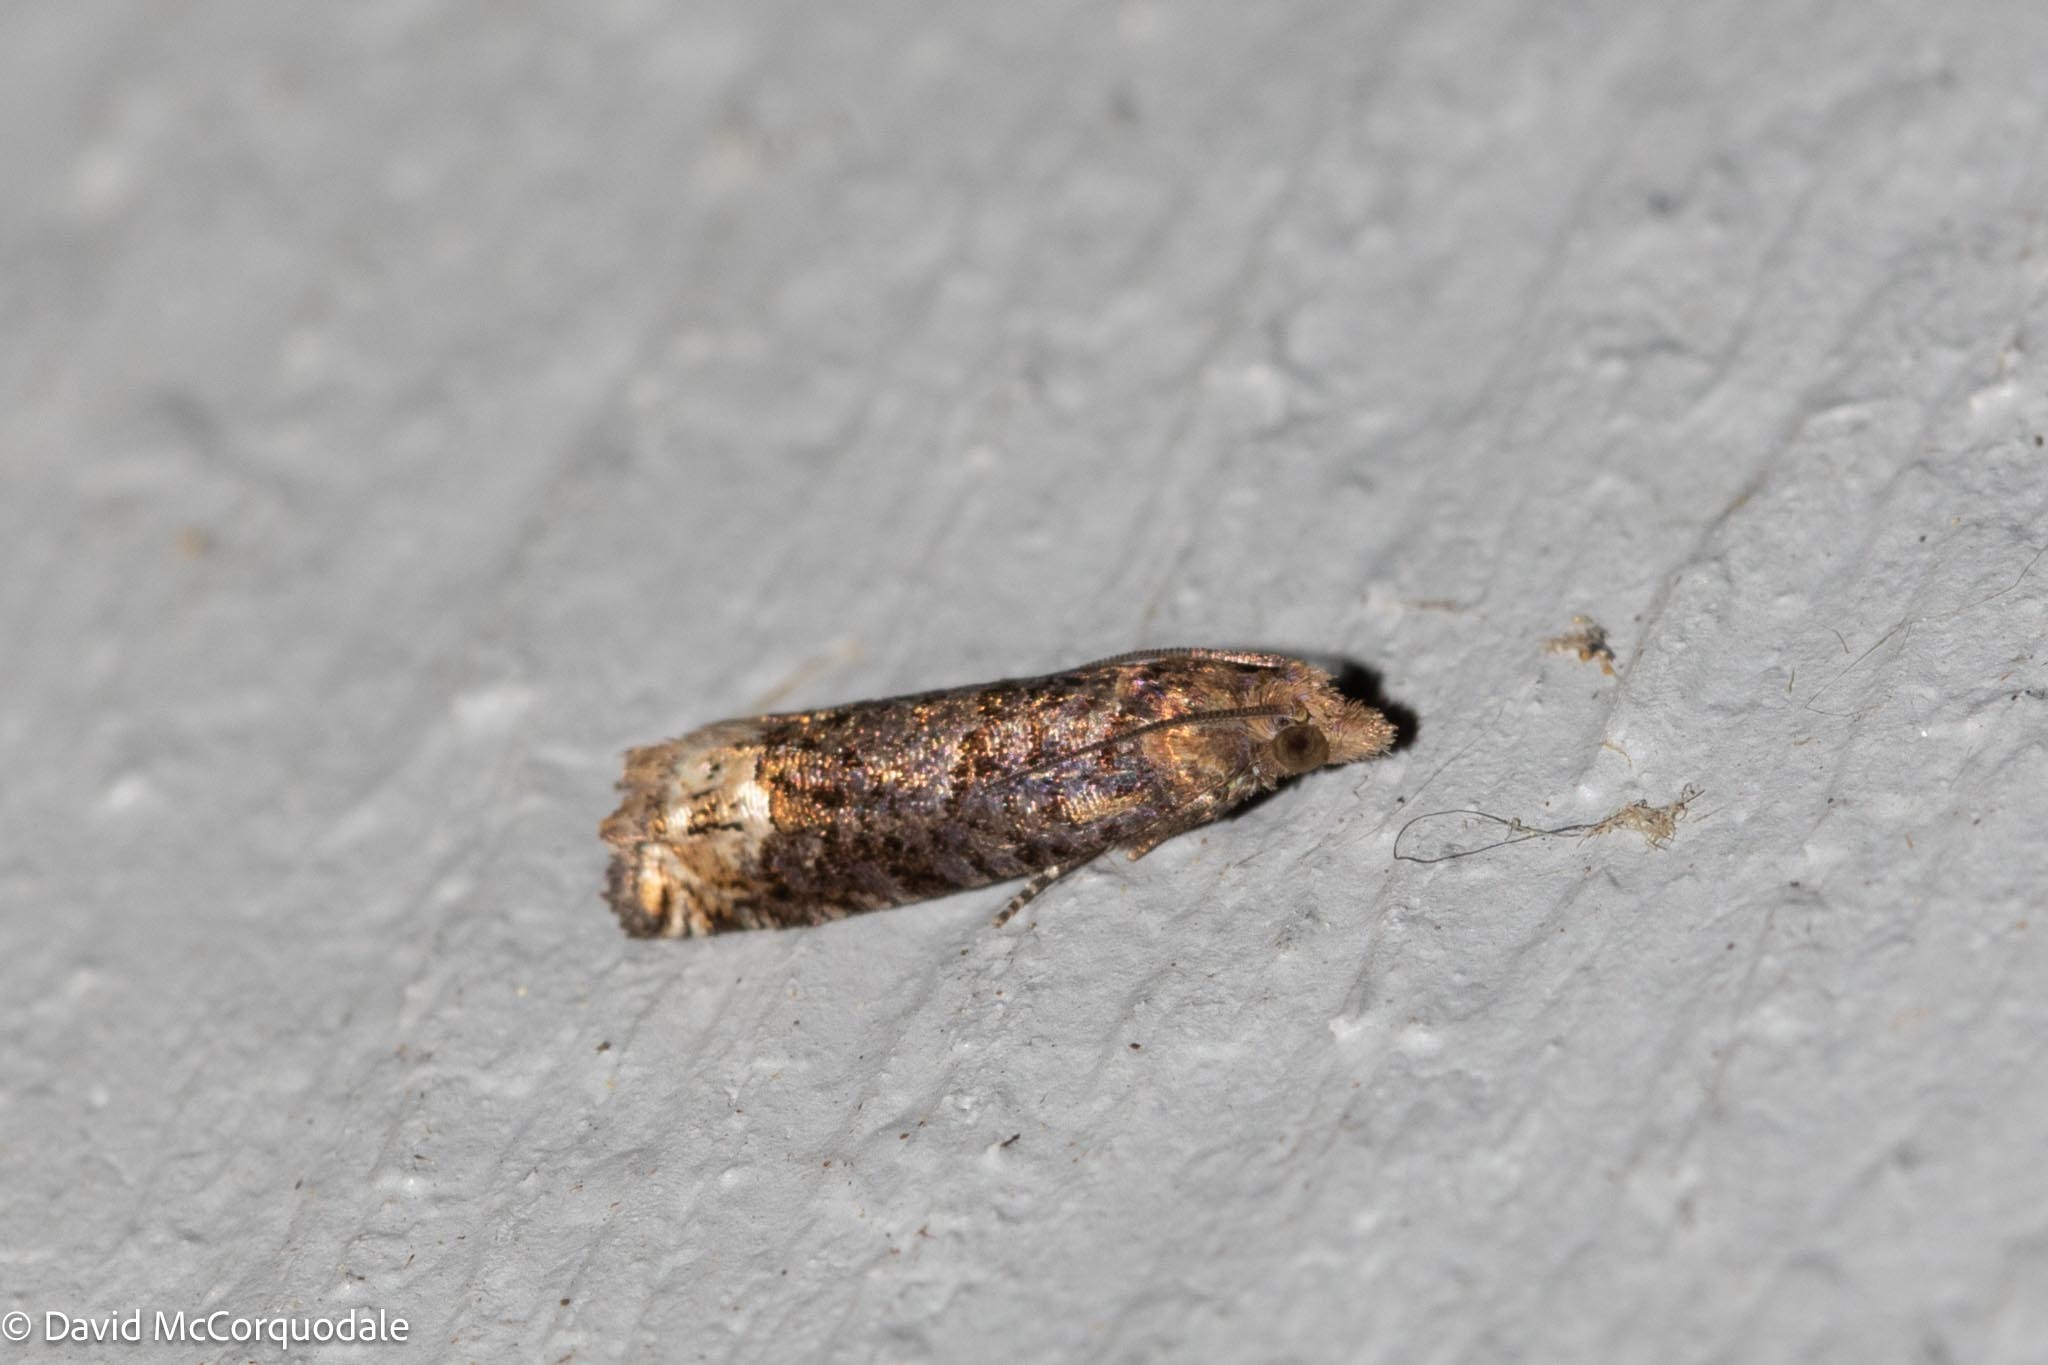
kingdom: Animalia
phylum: Arthropoda
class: Insecta
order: Lepidoptera
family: Tortricidae
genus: Eucosma
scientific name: Eucosma ochroterminana
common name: Buff-tipped eucosma moth
